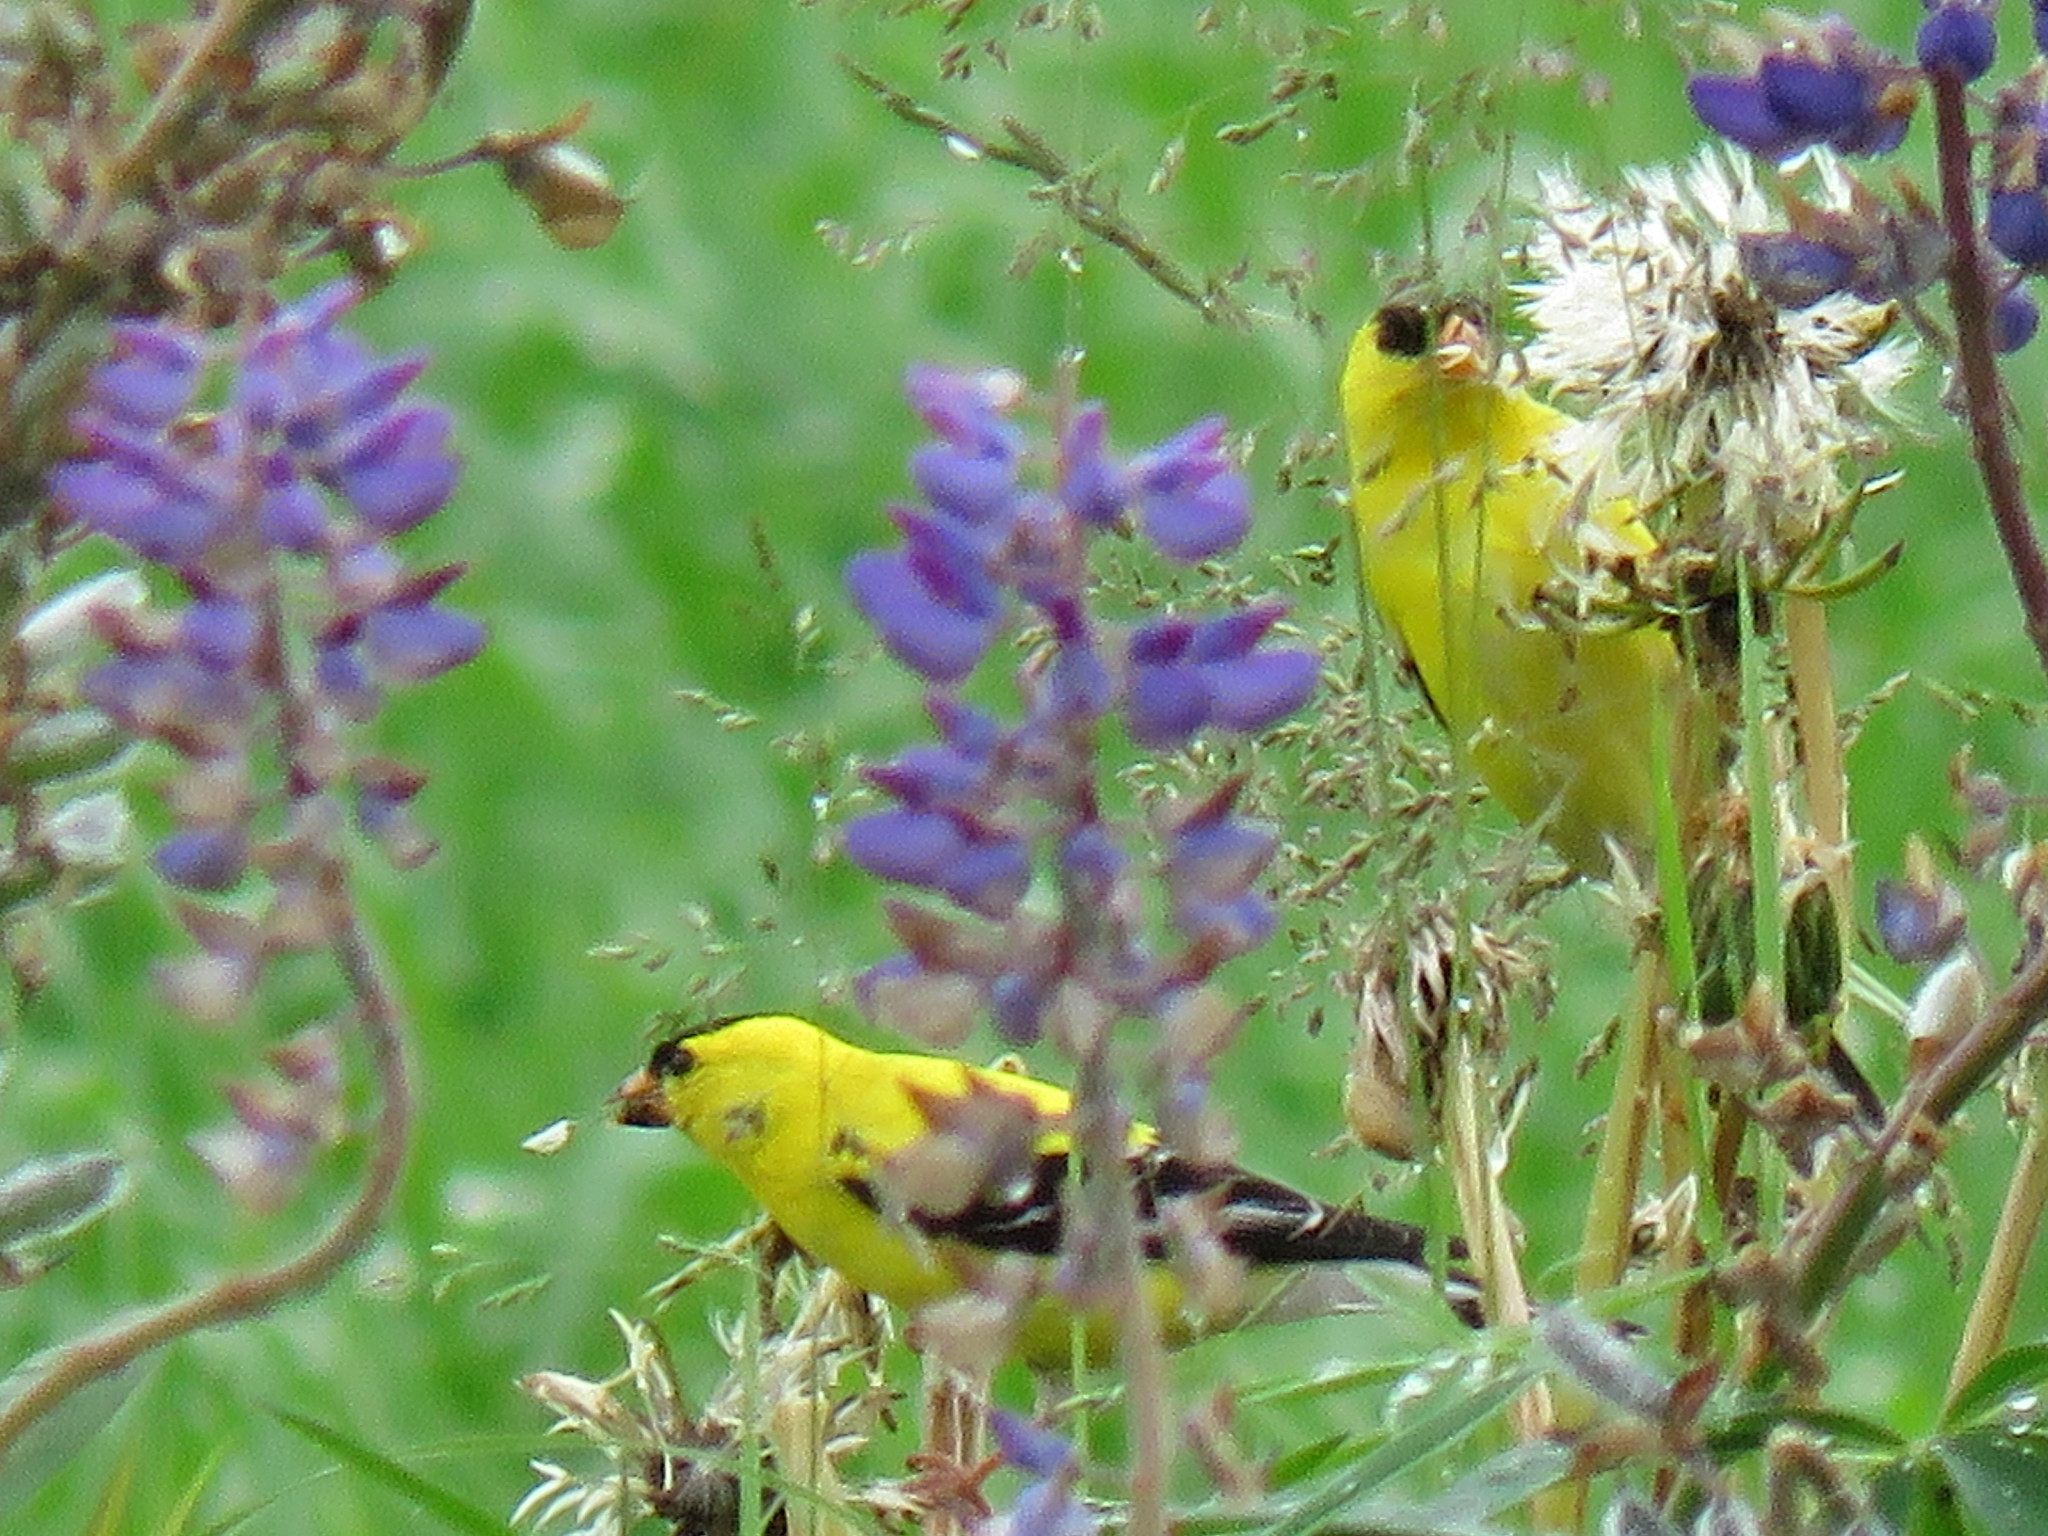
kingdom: Animalia
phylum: Chordata
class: Aves
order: Passeriformes
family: Fringillidae
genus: Spinus
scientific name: Spinus tristis
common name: American goldfinch
